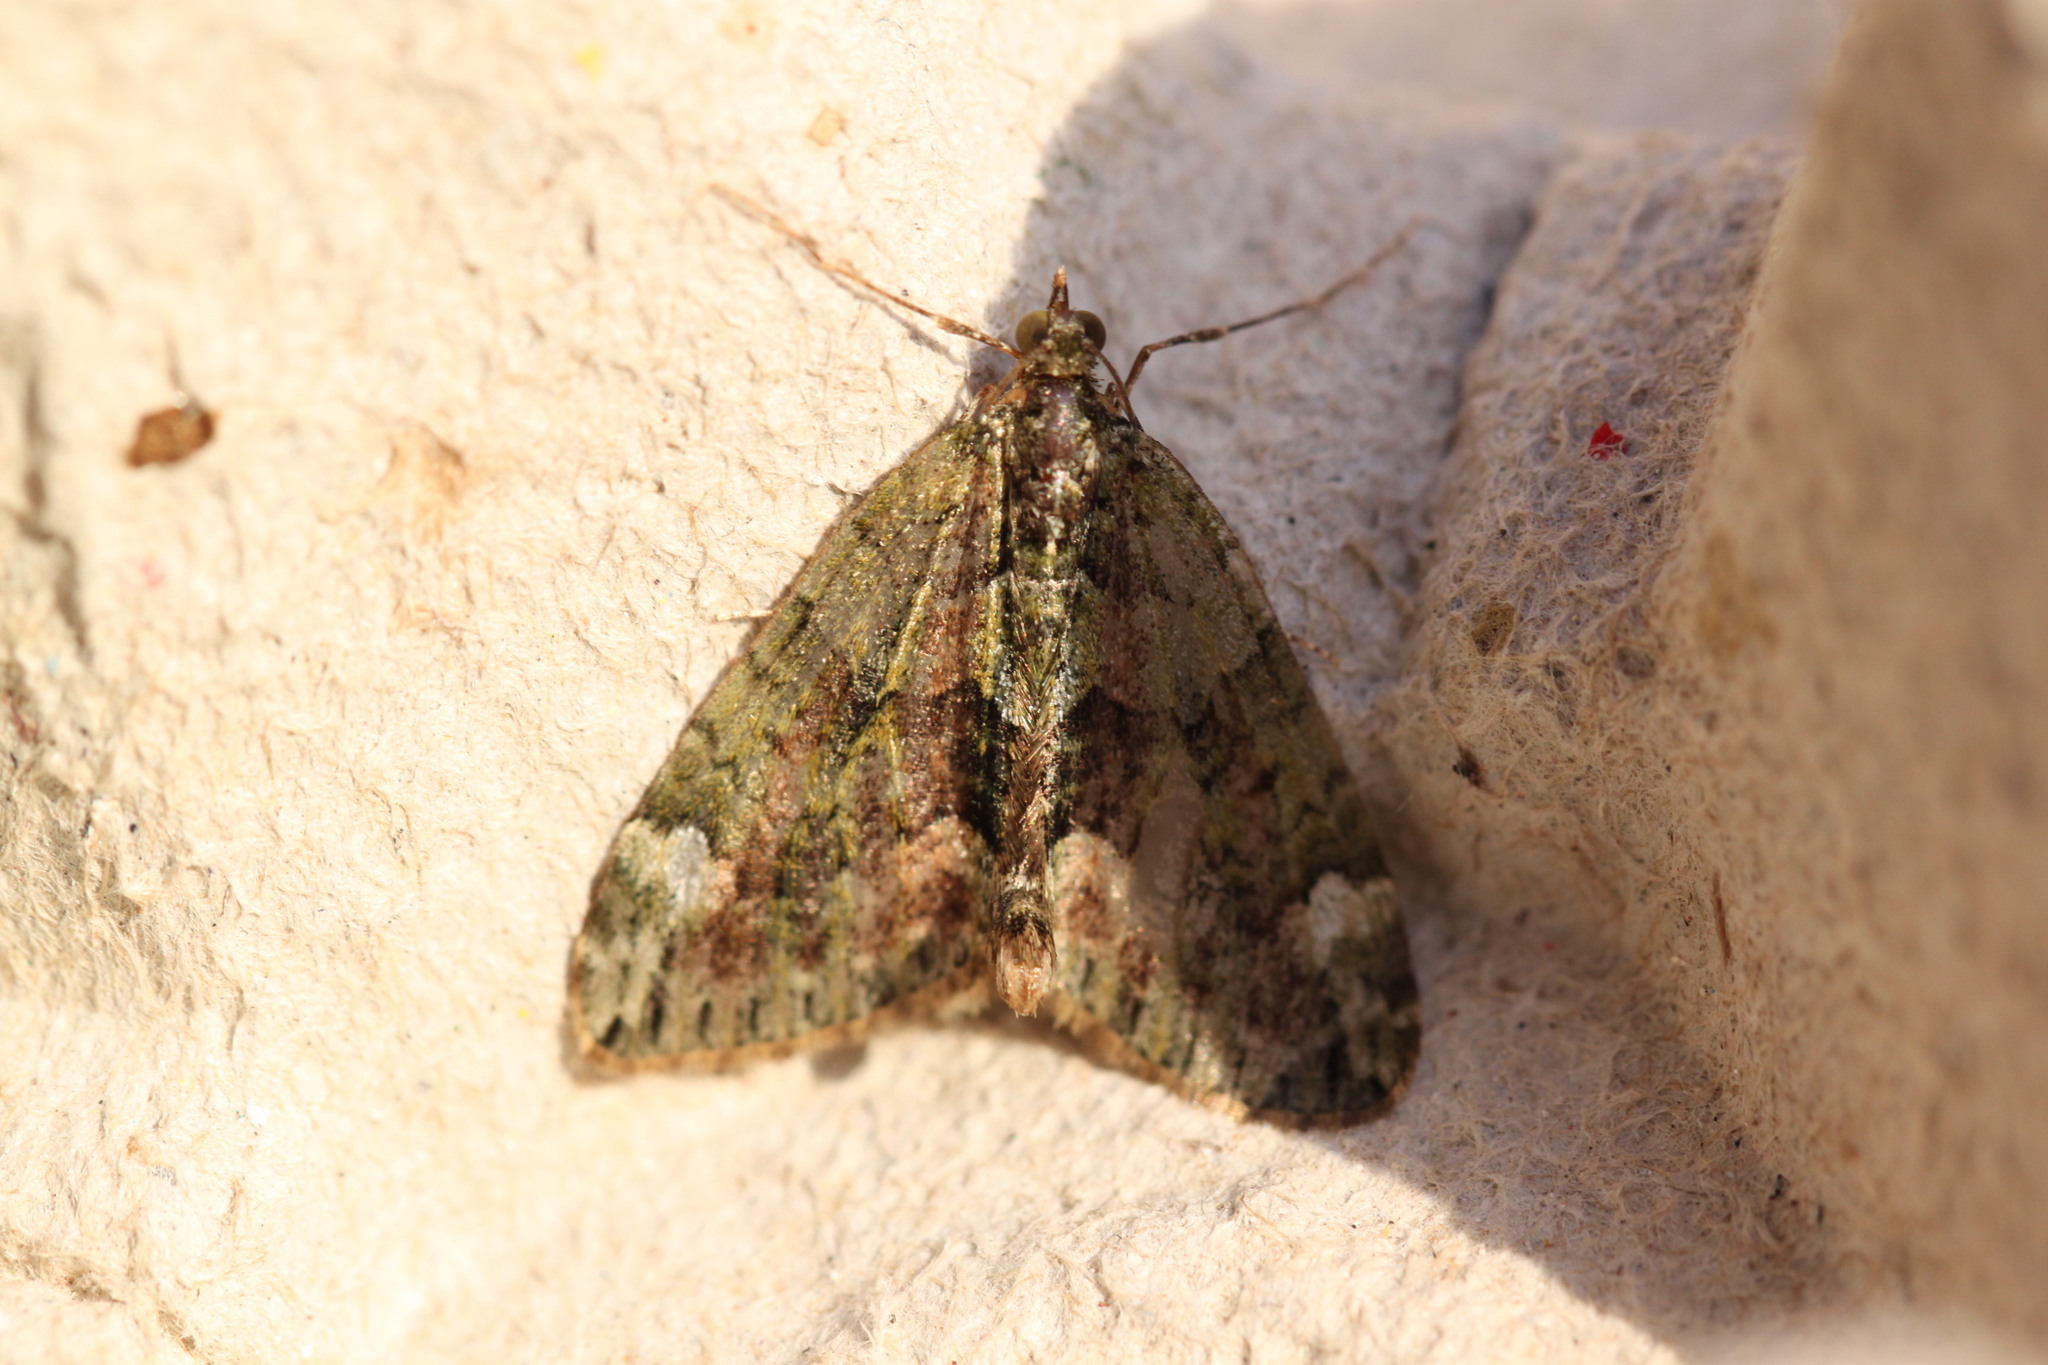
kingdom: Animalia
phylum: Arthropoda
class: Insecta
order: Lepidoptera
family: Geometridae
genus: Chloroclysta
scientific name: Chloroclysta siterata
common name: Red-green carpet
